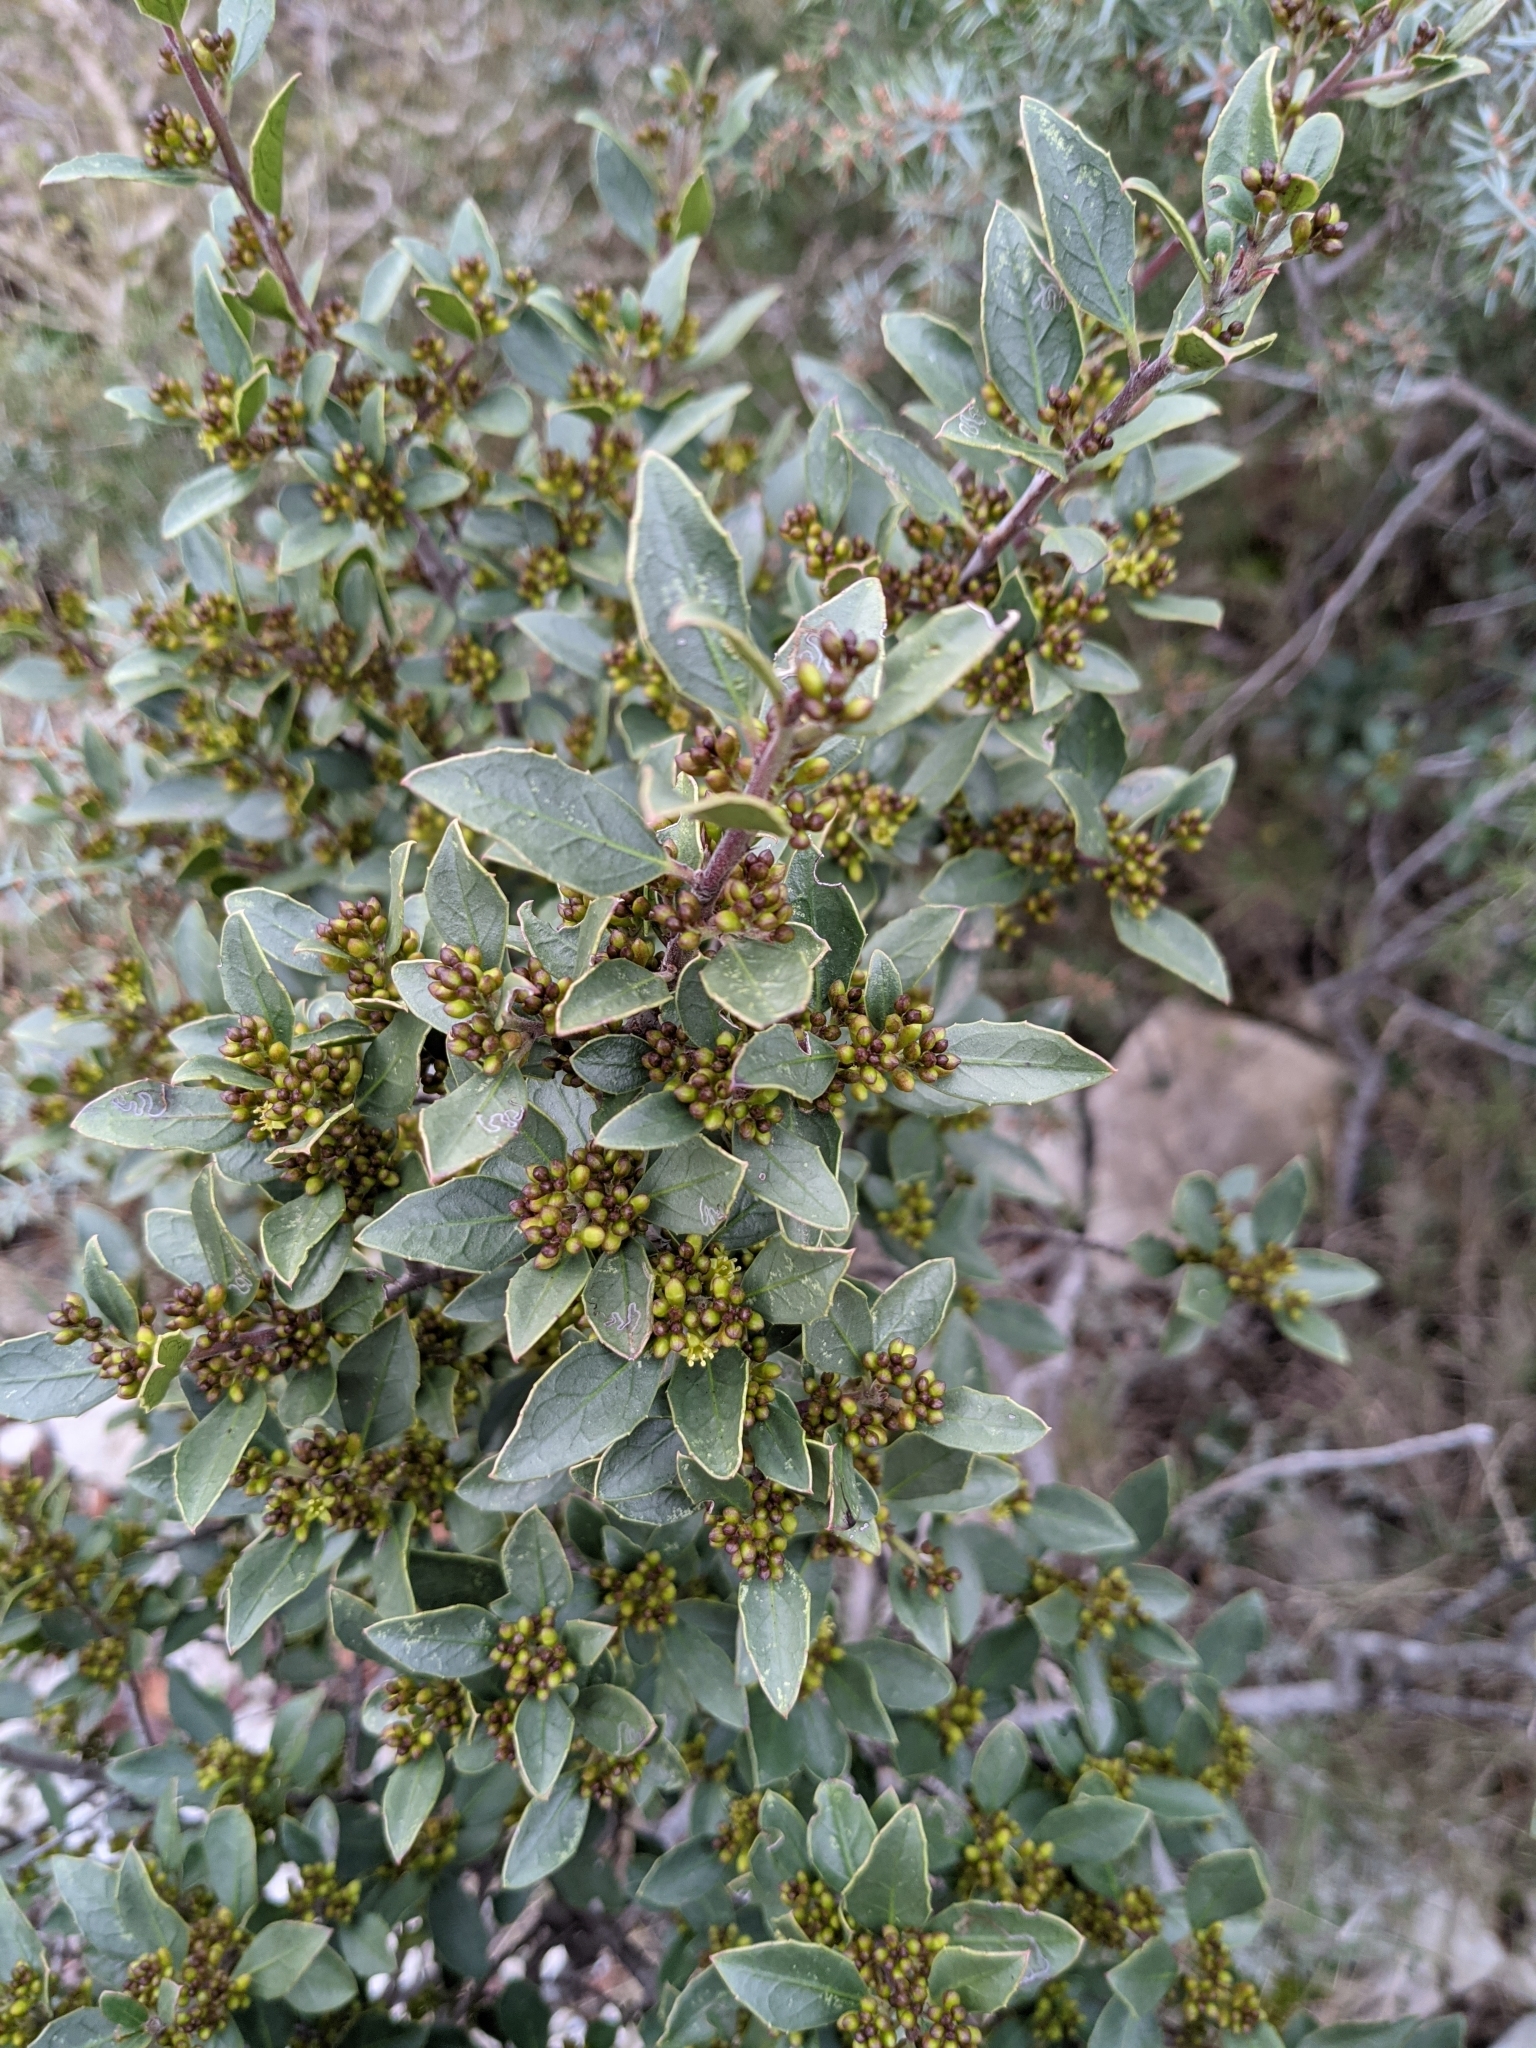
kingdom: Plantae
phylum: Tracheophyta
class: Magnoliopsida
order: Rosales
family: Rhamnaceae
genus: Rhamnus
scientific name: Rhamnus alaternus
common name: Mediterranean buckthorn
